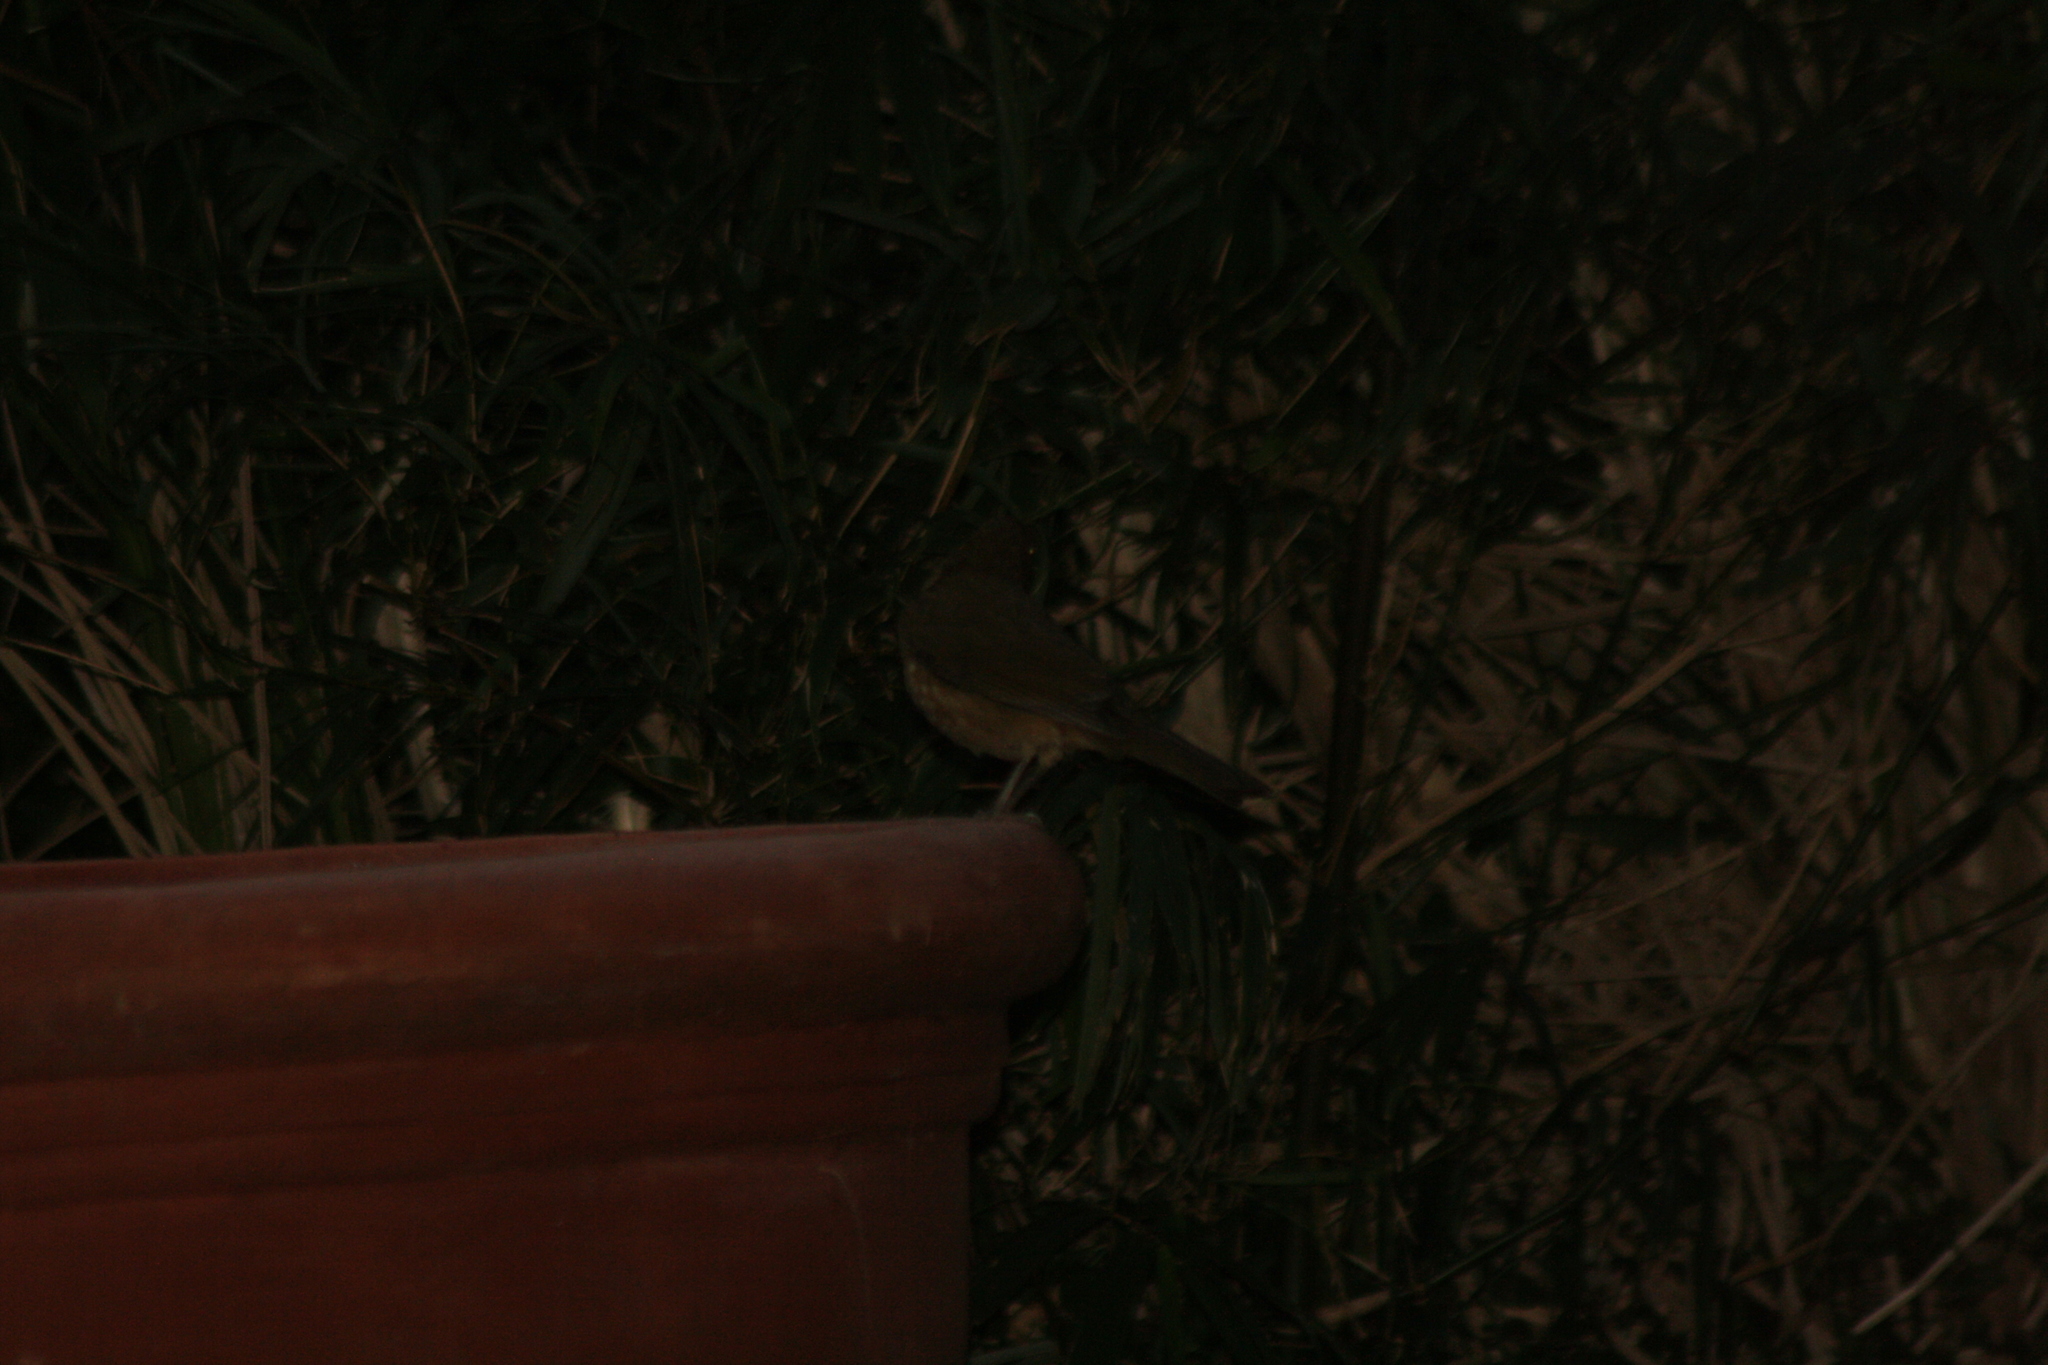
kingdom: Animalia
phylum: Chordata
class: Aves
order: Passeriformes
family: Turdidae
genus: Turdus
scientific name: Turdus grayi
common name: Clay-colored thrush
